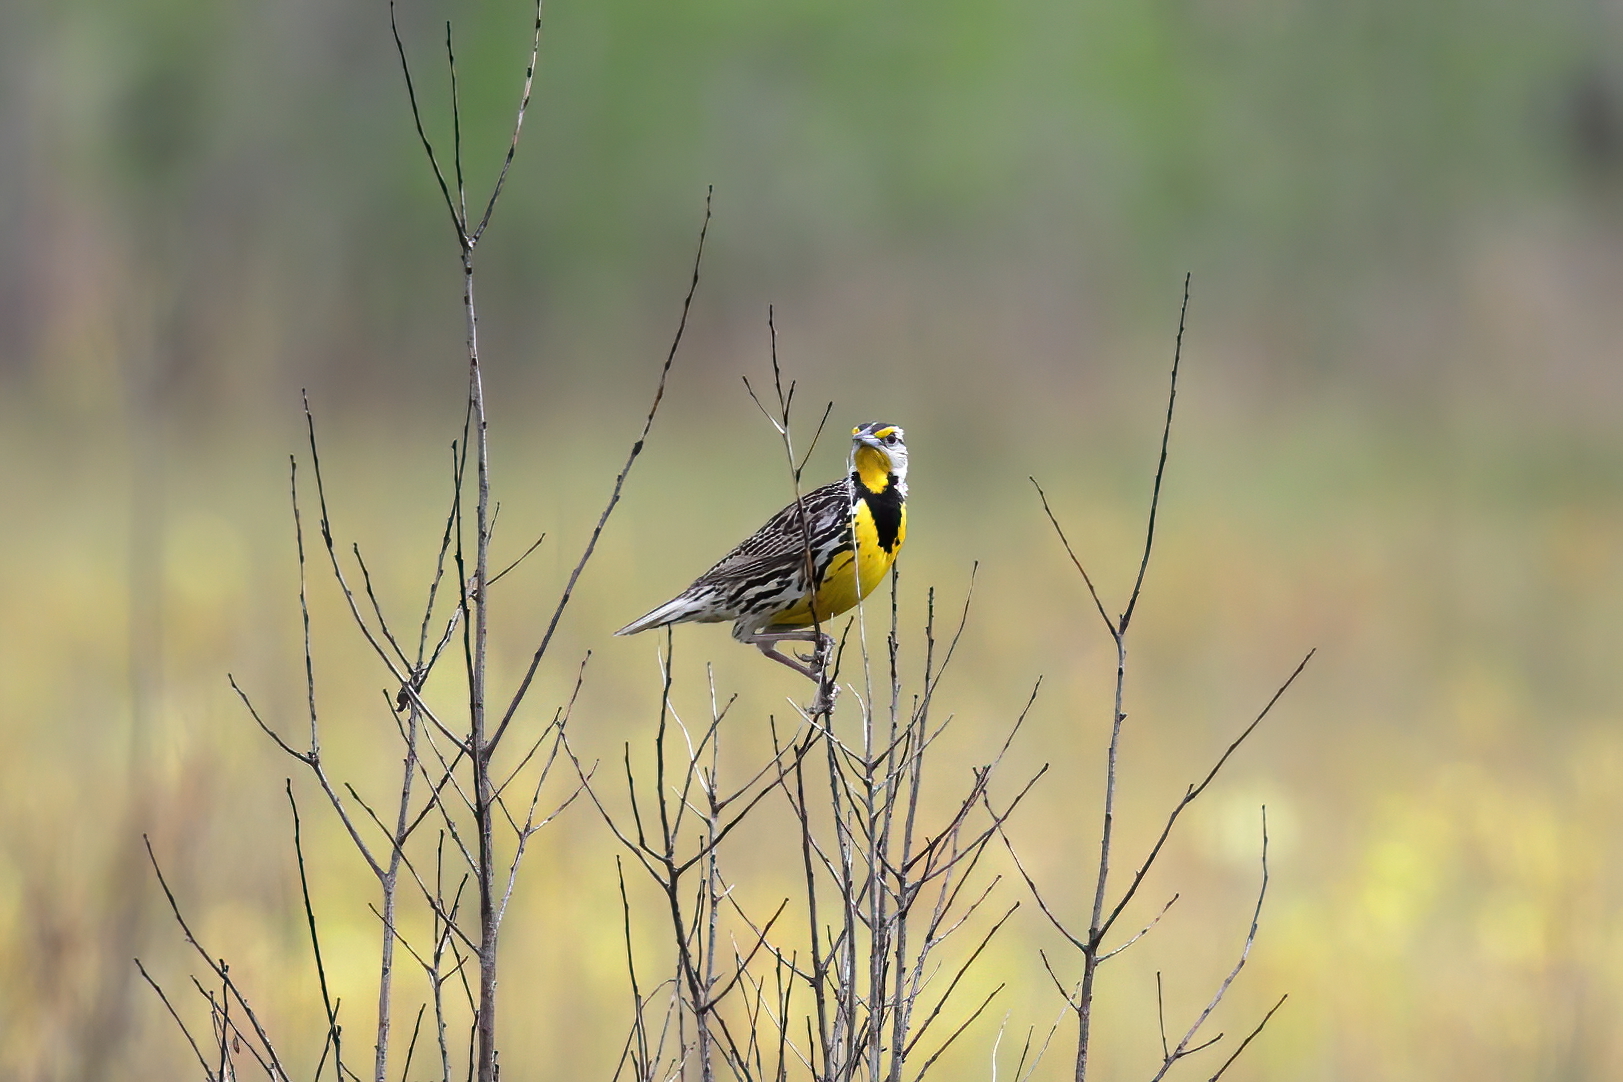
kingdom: Animalia
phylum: Chordata
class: Aves
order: Passeriformes
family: Icteridae
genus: Sturnella
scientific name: Sturnella magna
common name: Eastern meadowlark
